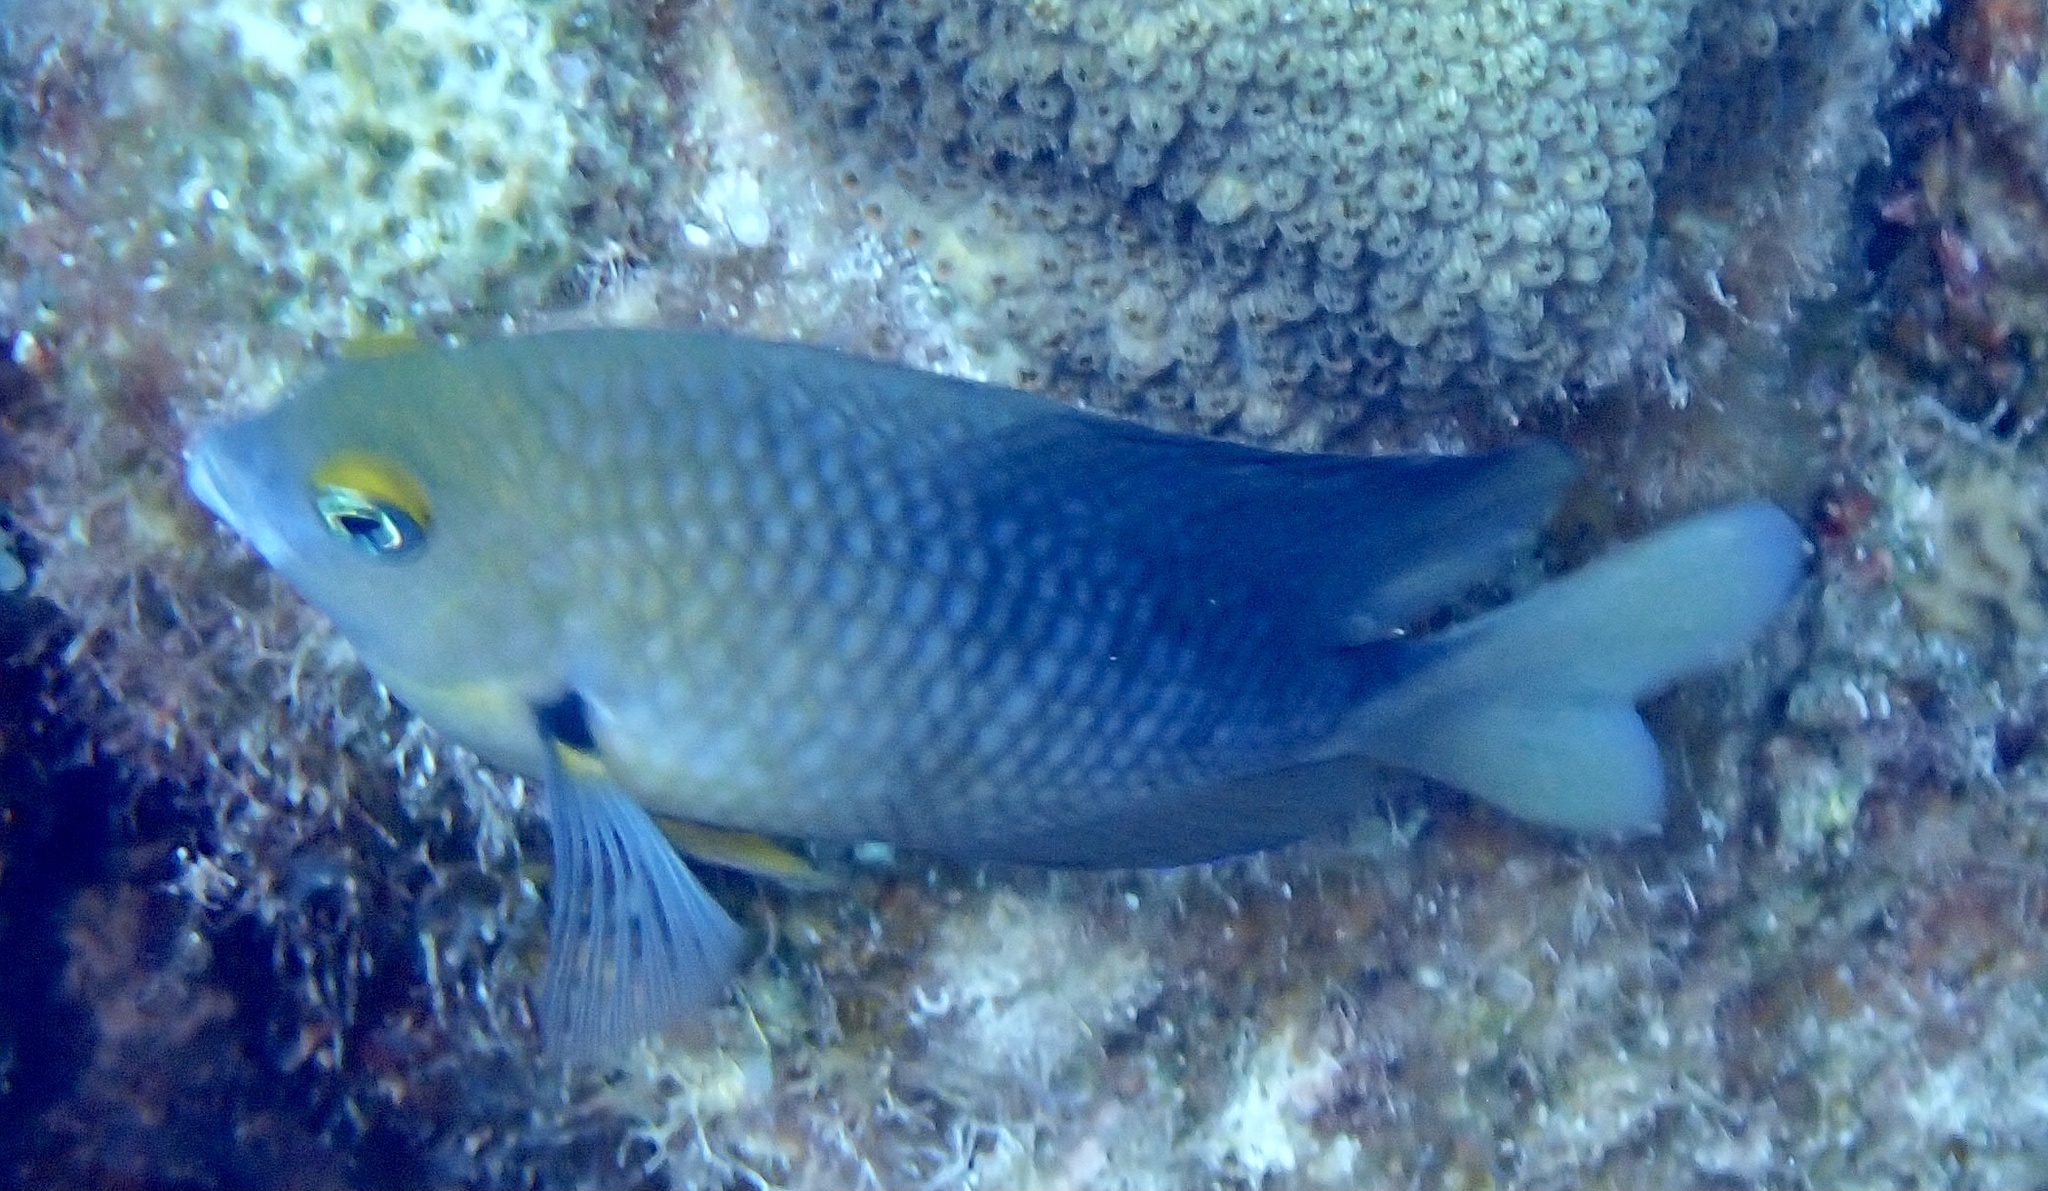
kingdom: Animalia
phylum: Chordata
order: Perciformes
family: Pomacentridae
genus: Stegastes
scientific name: Stegastes planifrons
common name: Threespot damselfish
